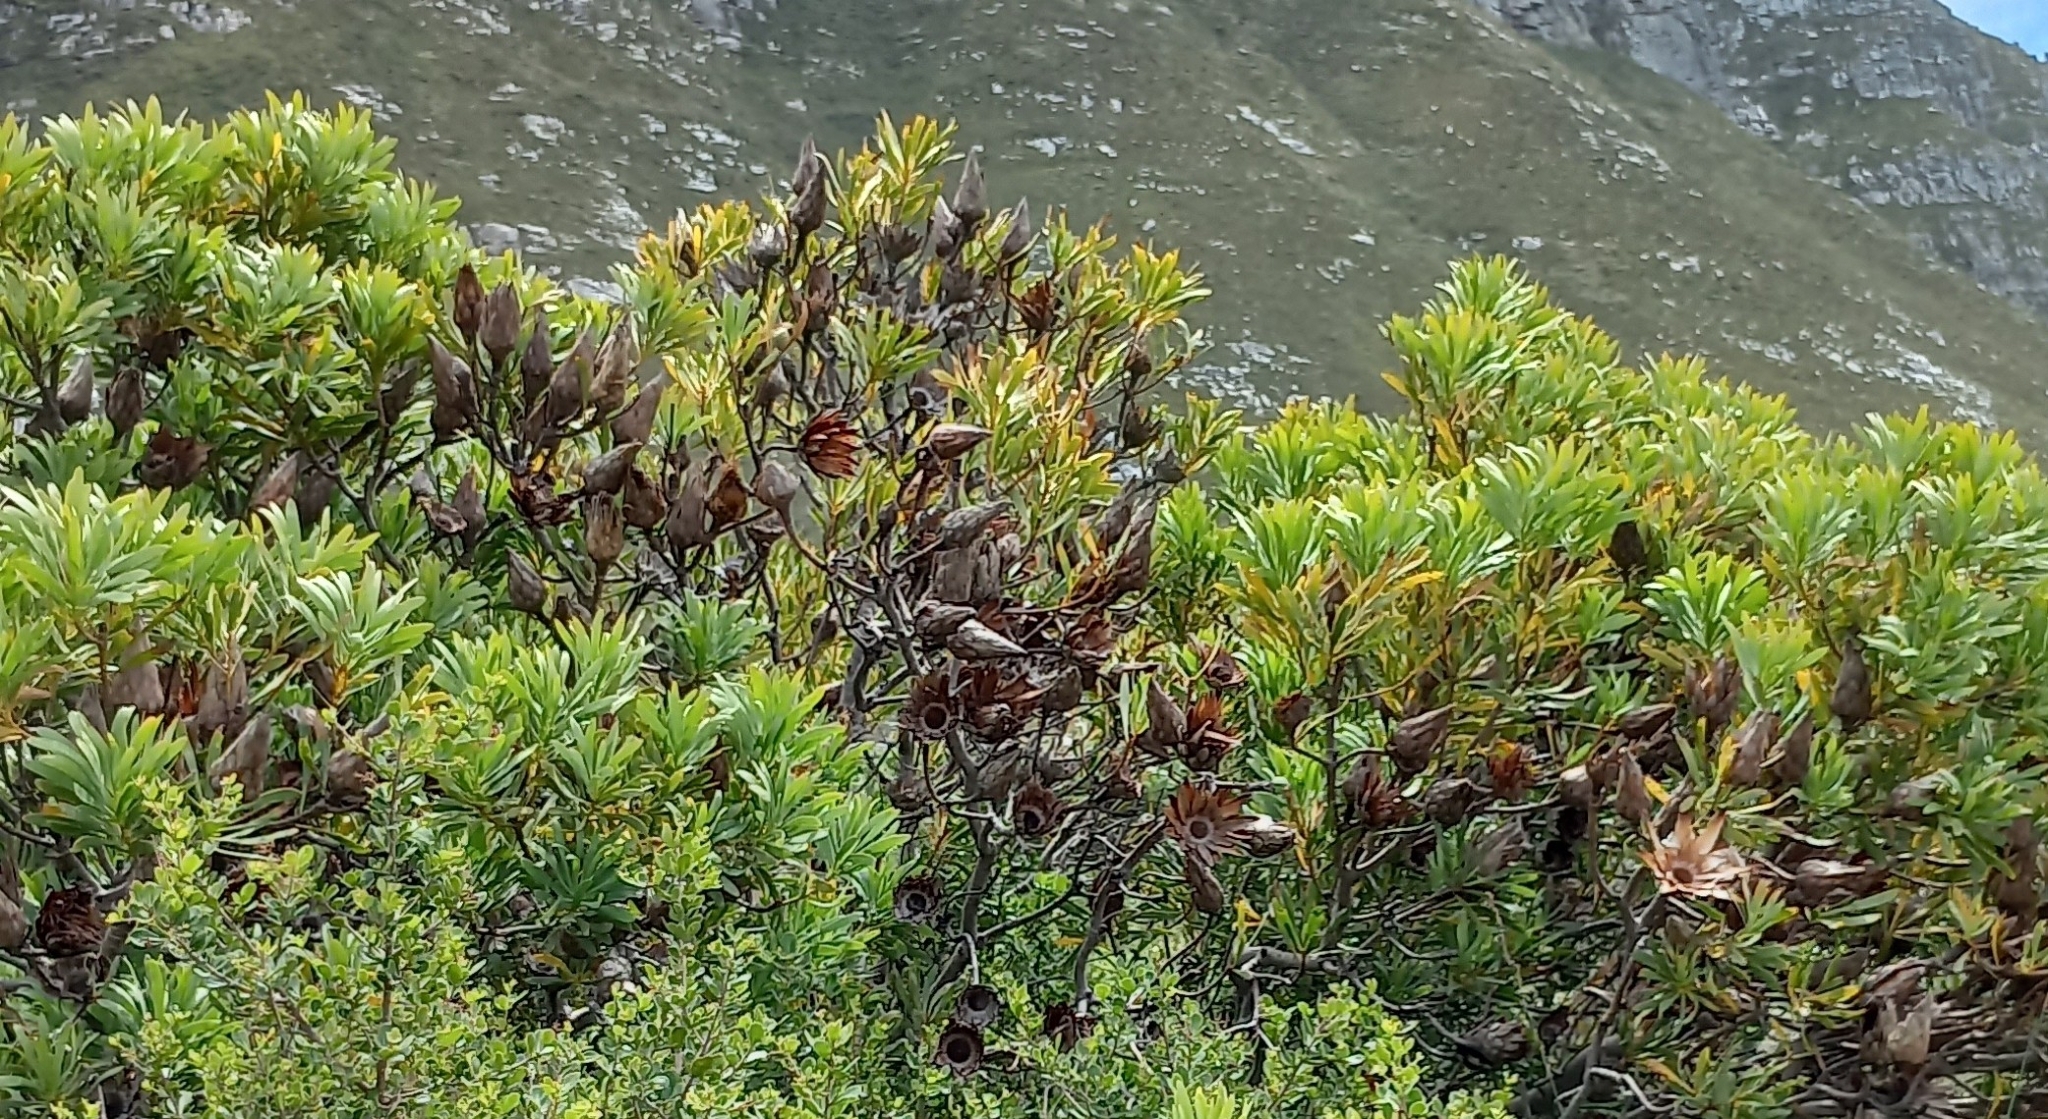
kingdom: Plantae
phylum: Tracheophyta
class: Magnoliopsida
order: Proteales
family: Proteaceae
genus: Protea
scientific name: Protea repens
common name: Sugarbush
